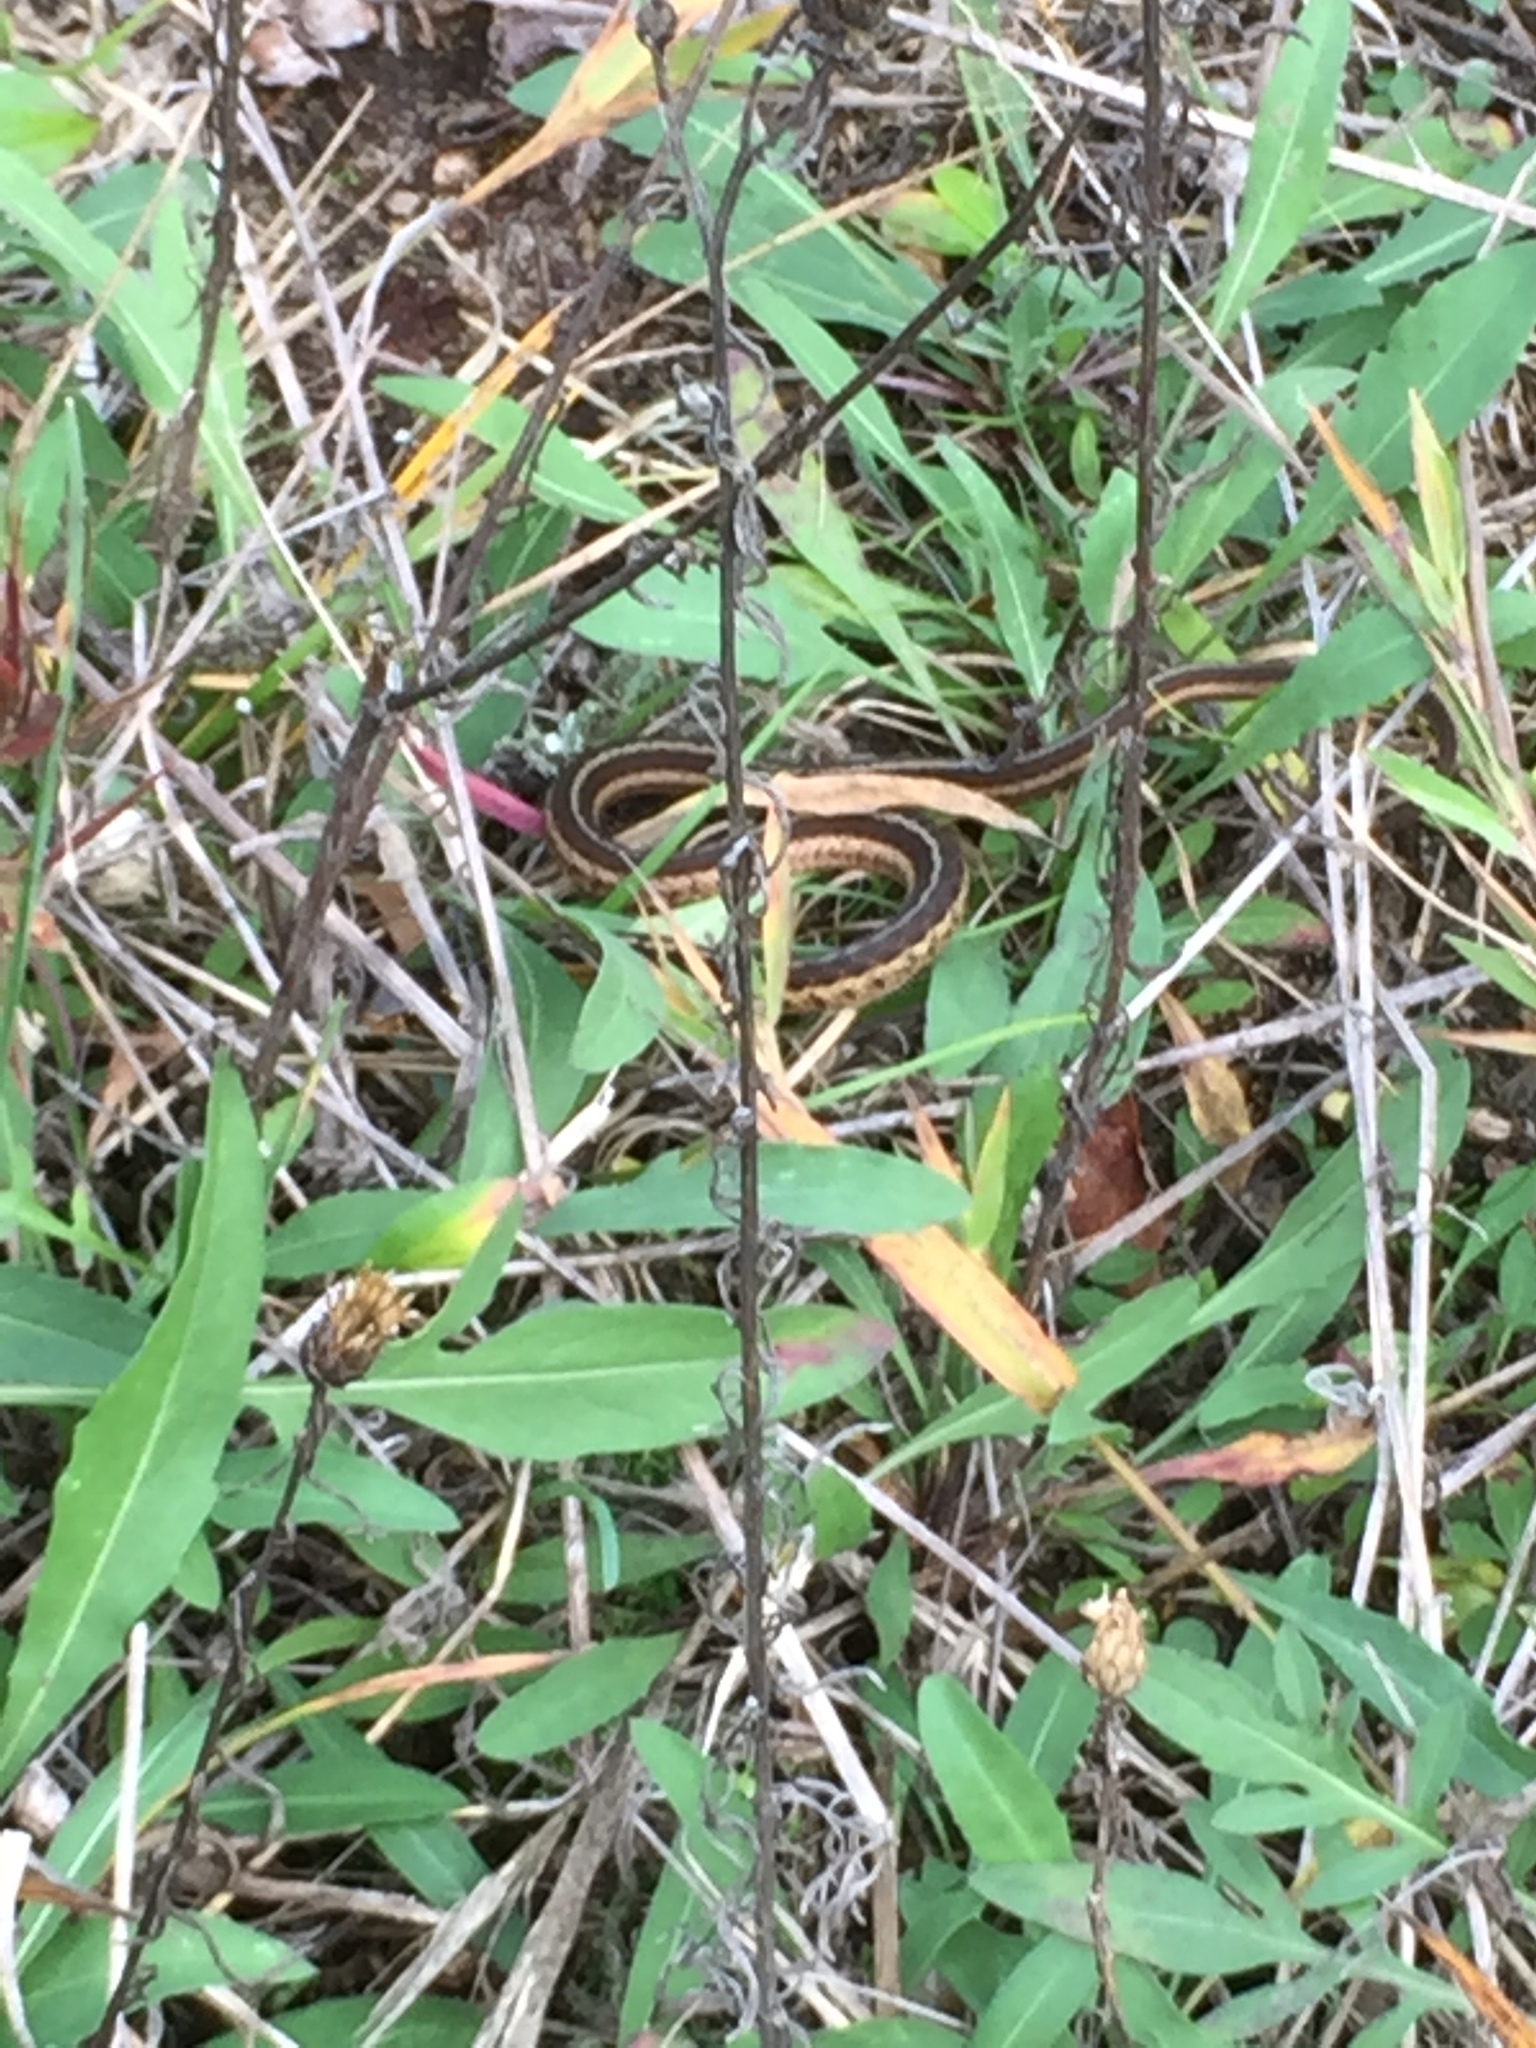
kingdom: Animalia
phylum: Chordata
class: Squamata
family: Colubridae
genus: Thamnophis
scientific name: Thamnophis sirtalis
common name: Common garter snake
